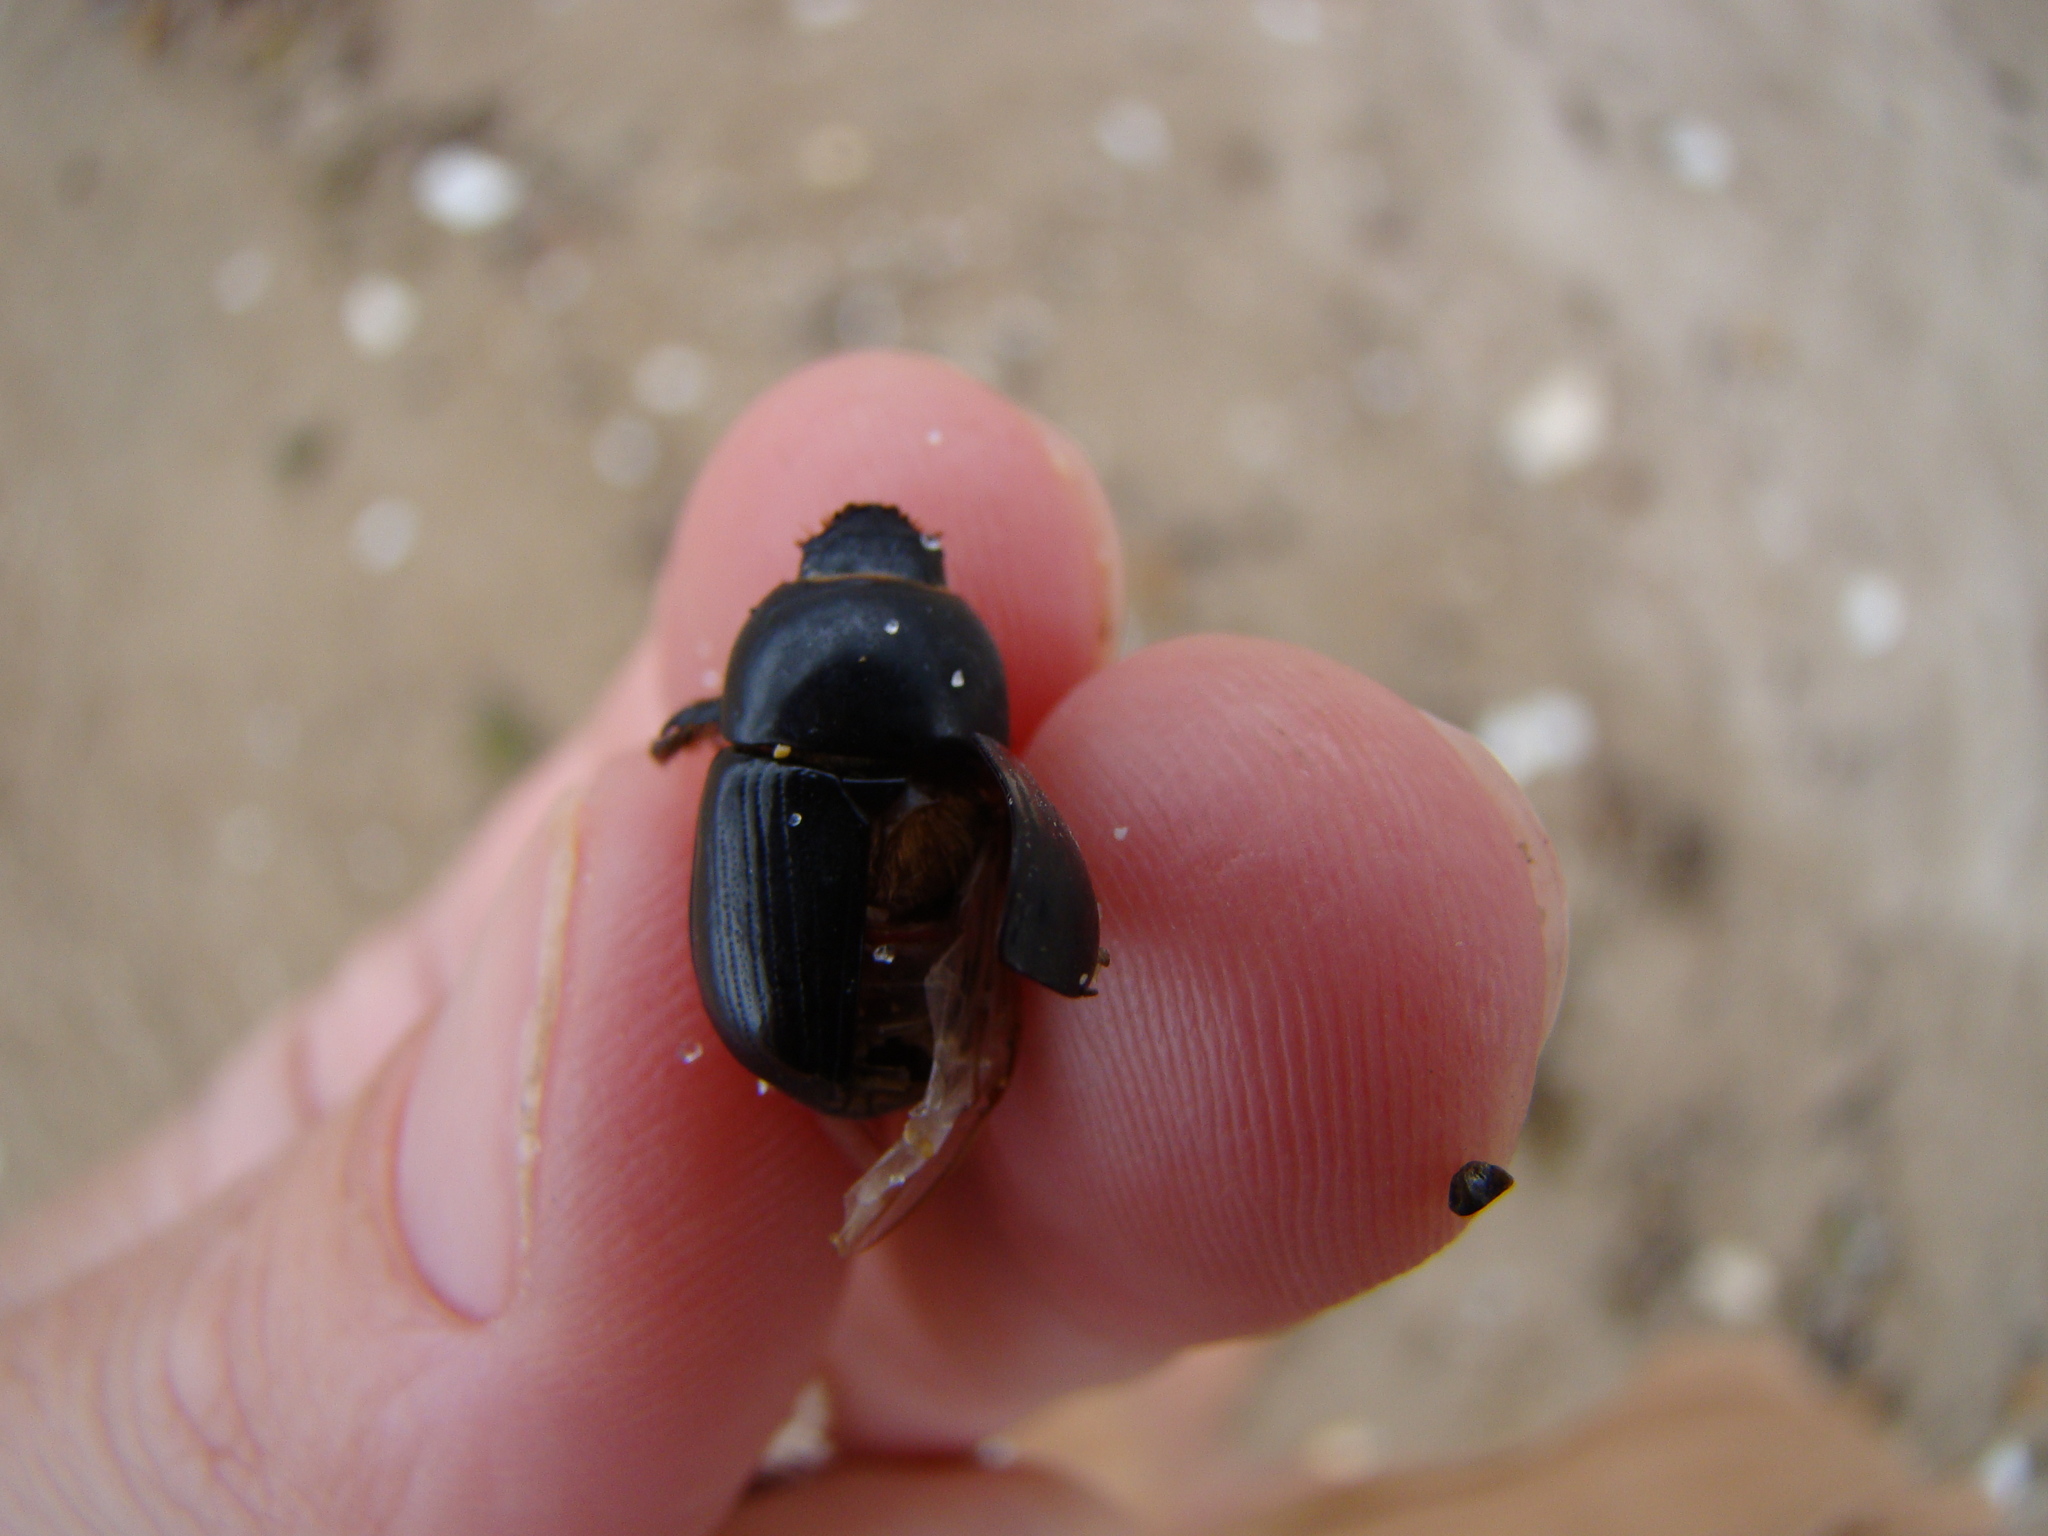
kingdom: Animalia
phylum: Arthropoda
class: Insecta
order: Coleoptera
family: Scarabaeidae
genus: Heteronychus
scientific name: Heteronychus arator
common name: African black beetle
